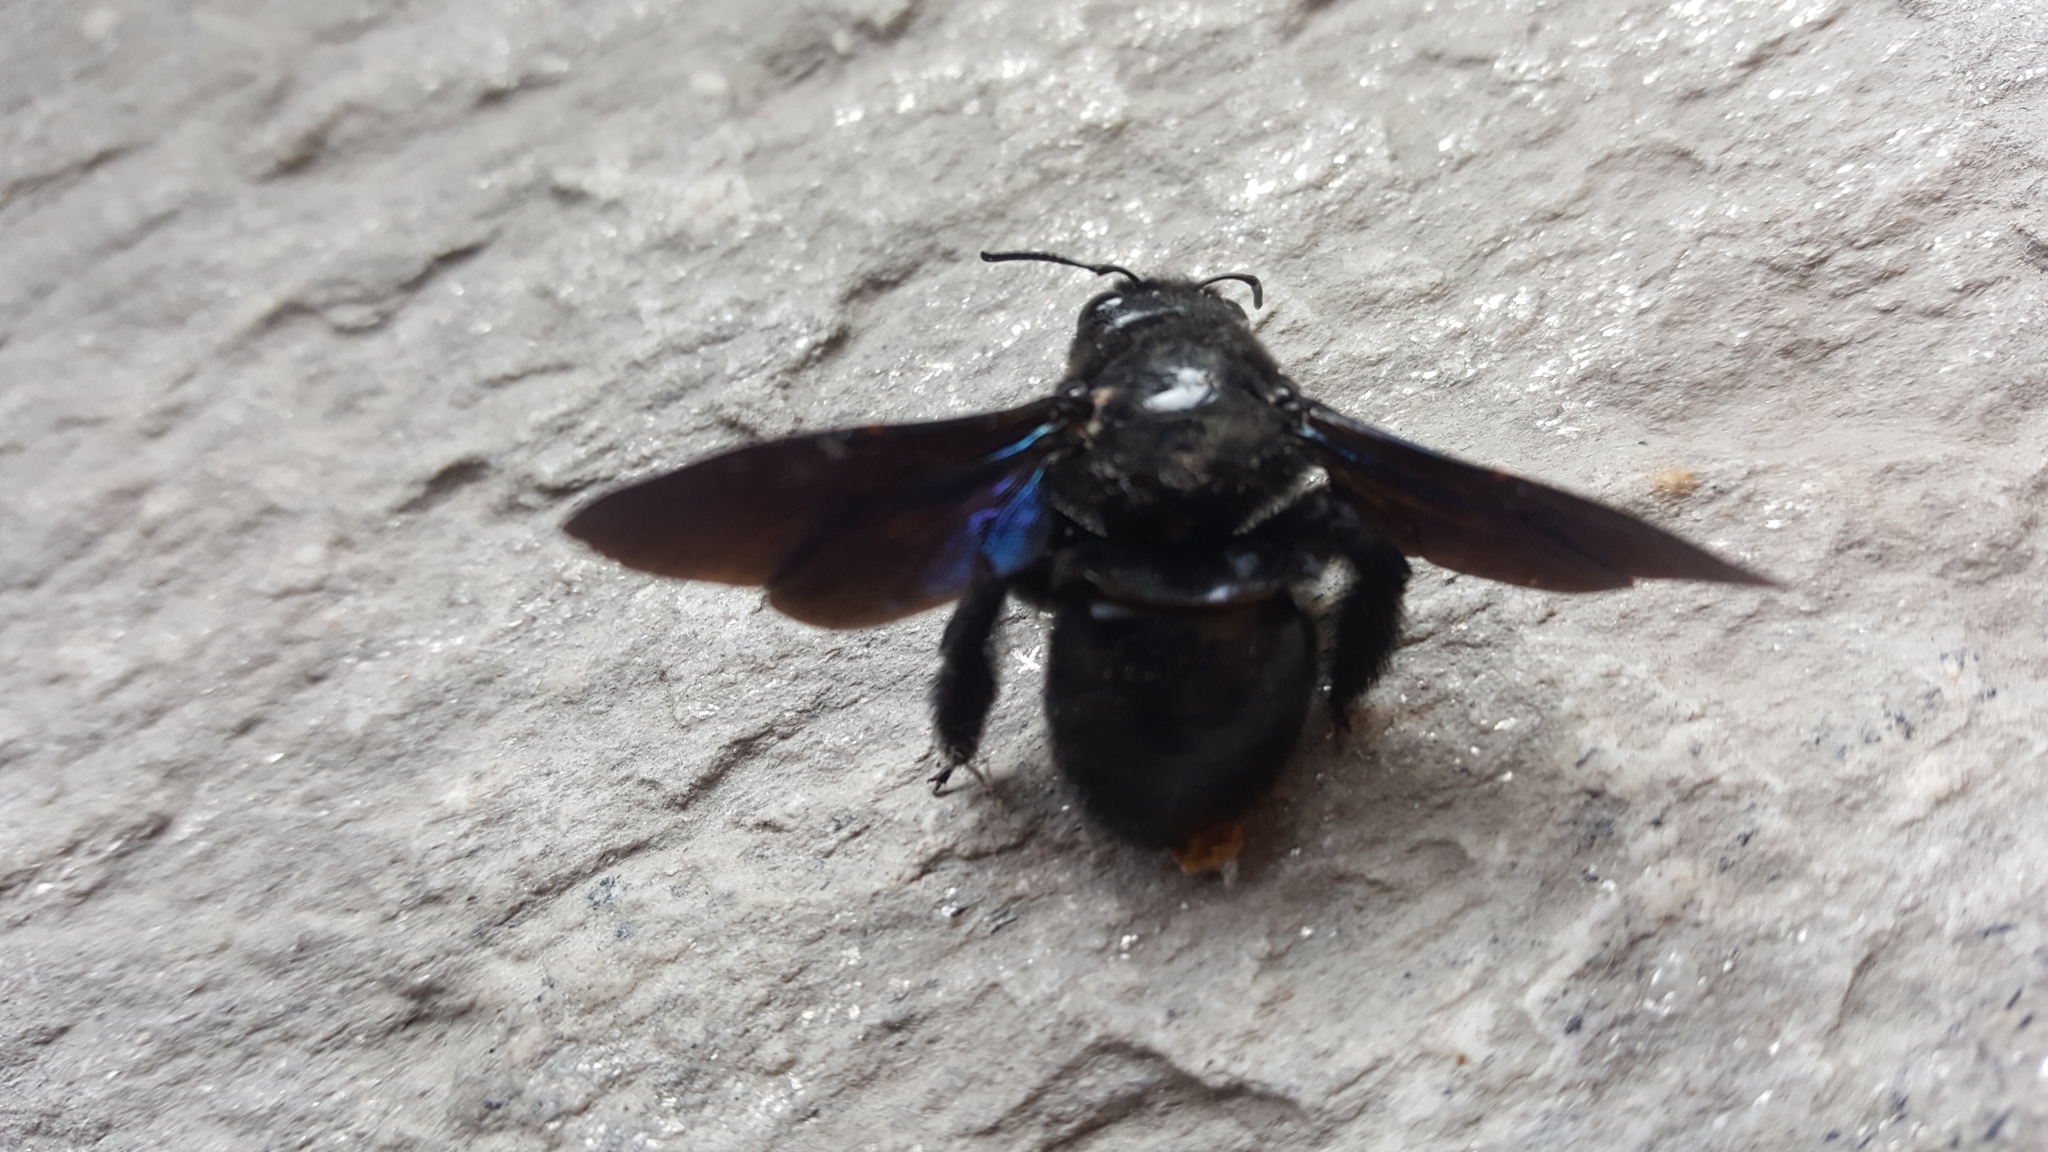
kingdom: Animalia
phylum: Arthropoda
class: Insecta
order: Hymenoptera
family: Apidae
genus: Xylocopa
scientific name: Xylocopa violacea
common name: Violet carpenter bee
